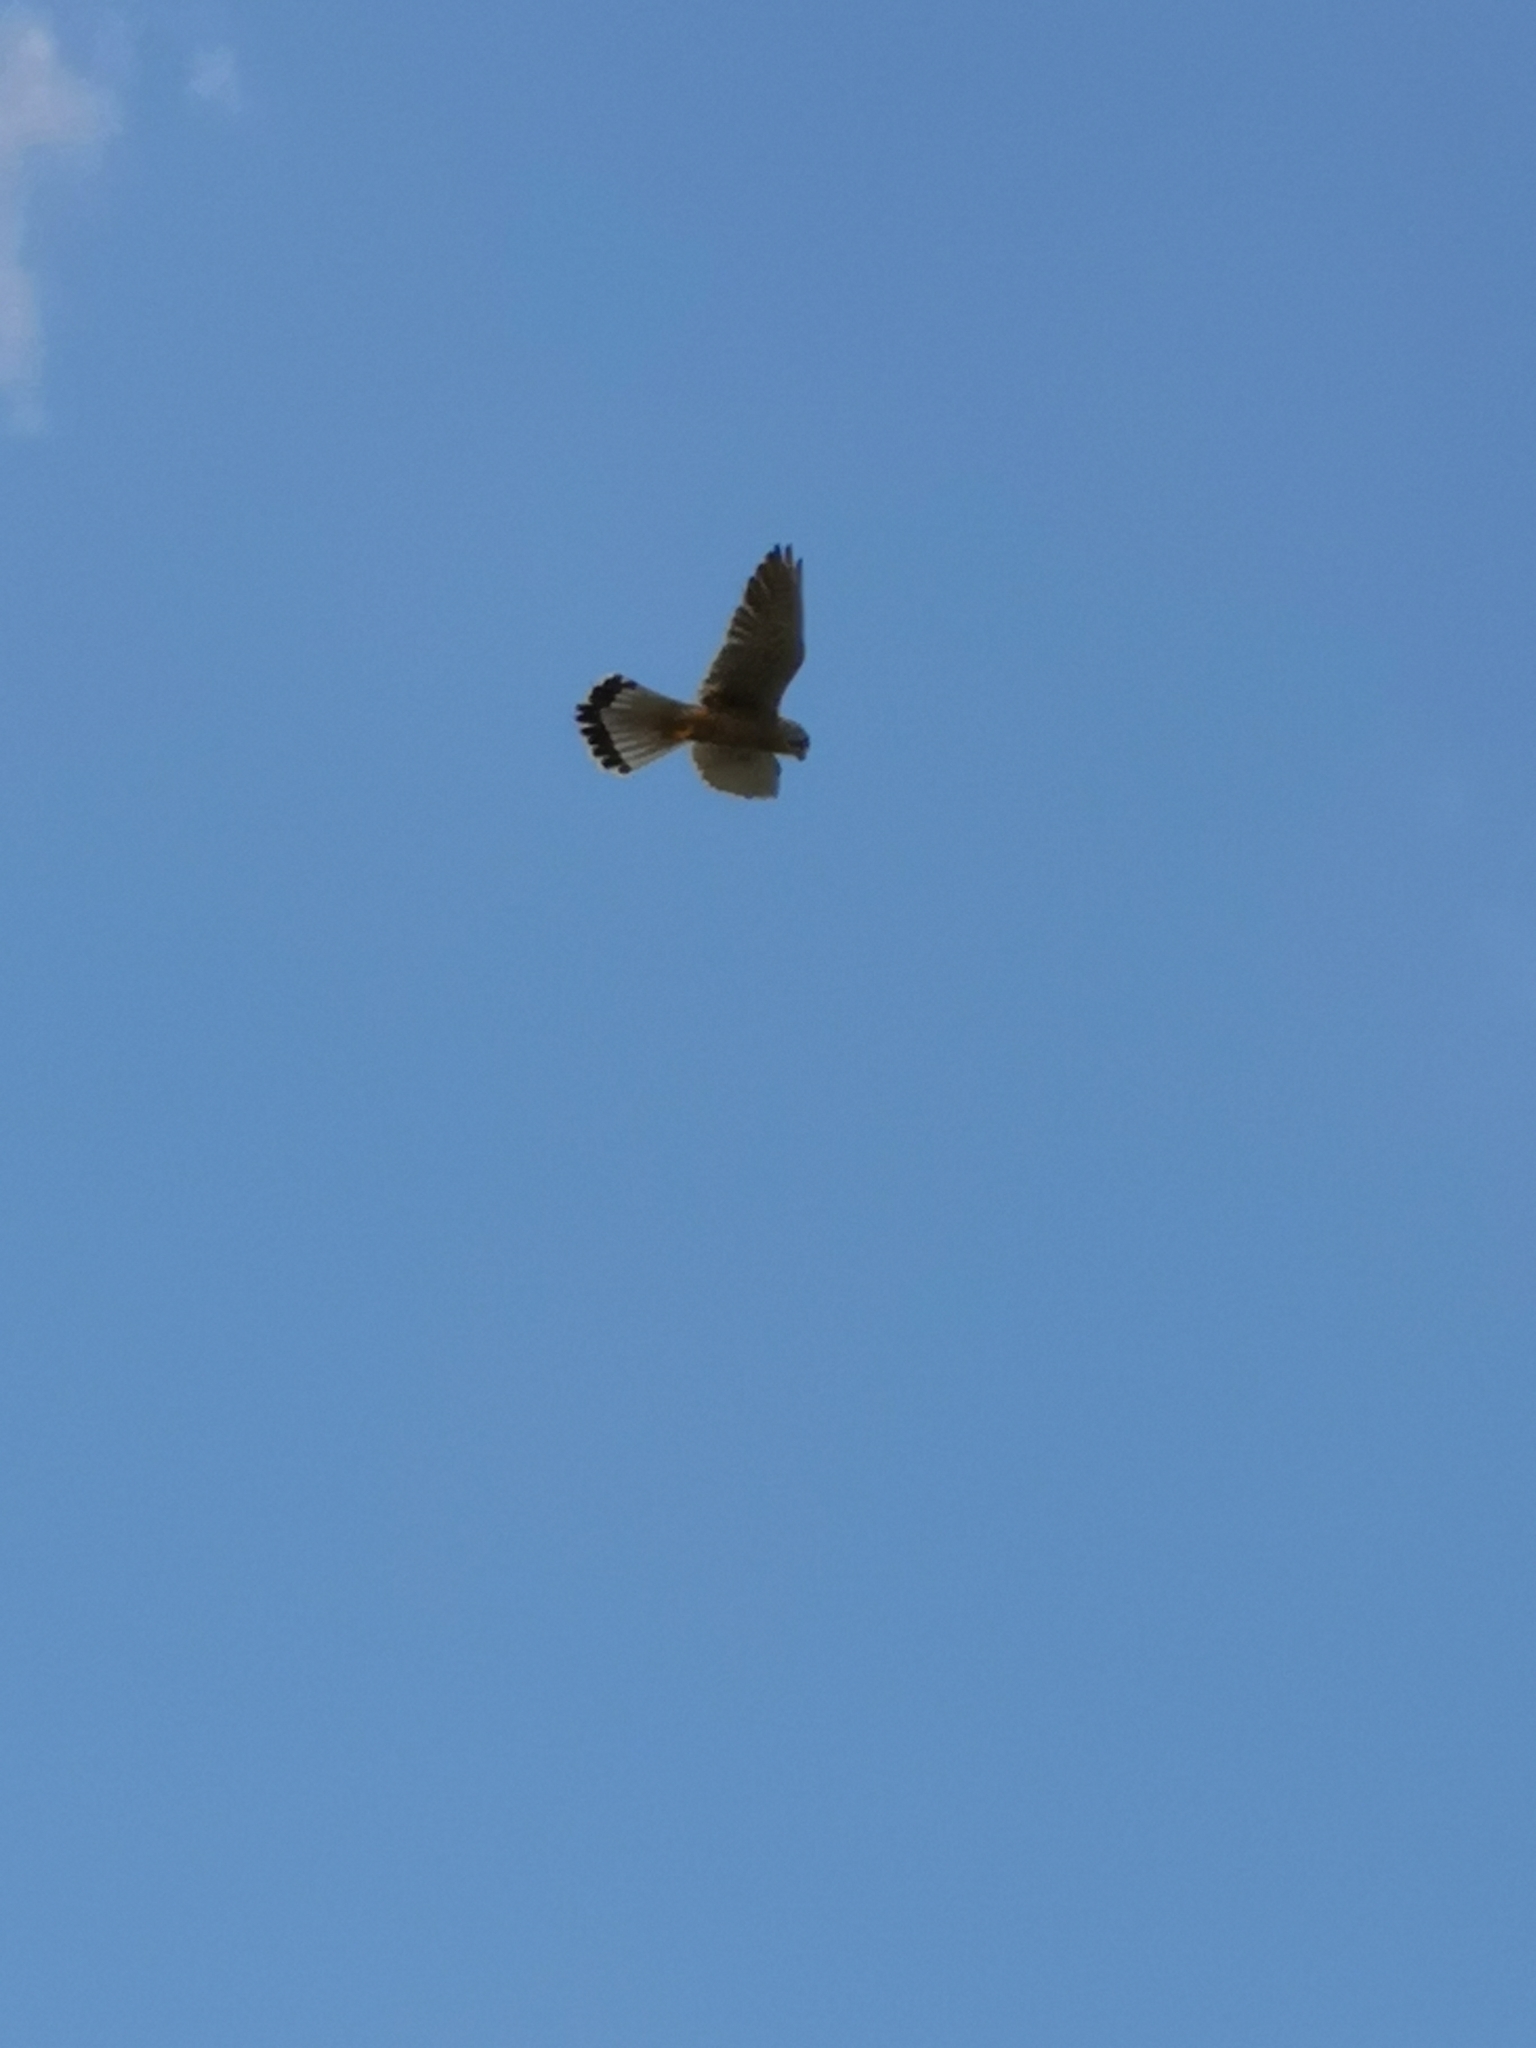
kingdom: Animalia
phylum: Chordata
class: Aves
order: Falconiformes
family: Falconidae
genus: Falco
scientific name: Falco tinnunculus
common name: Common kestrel
